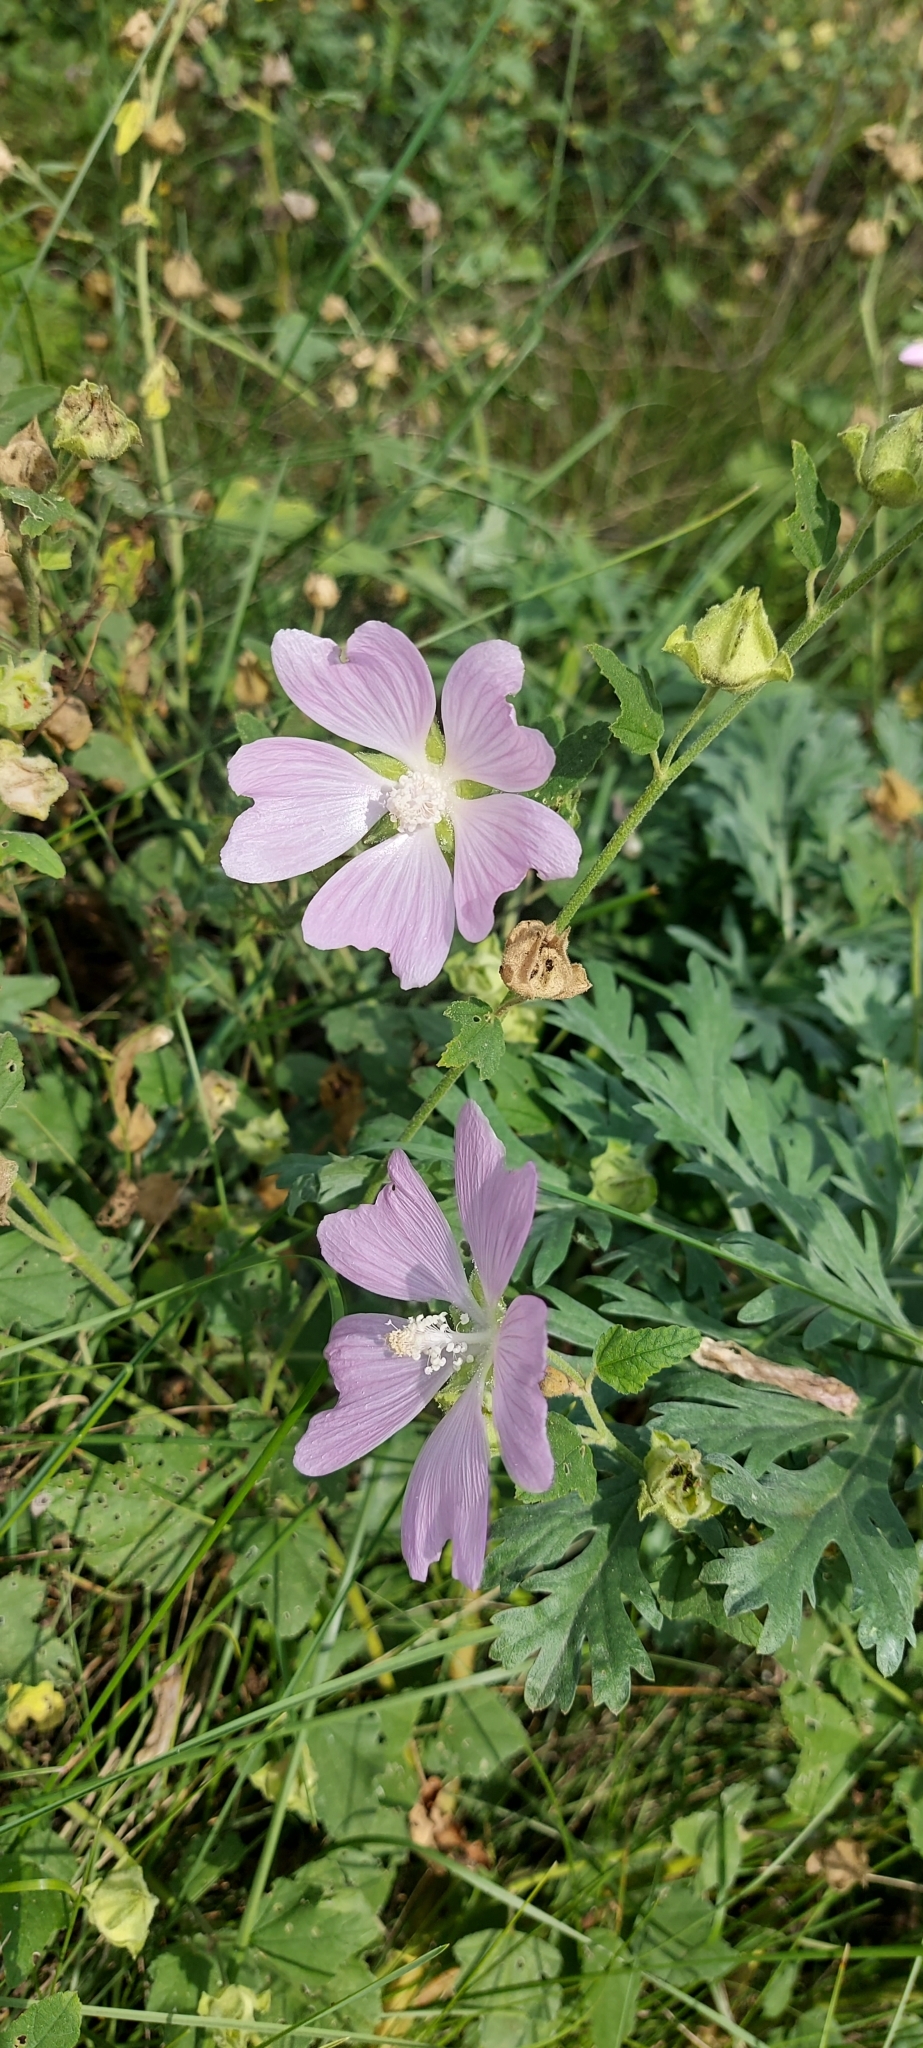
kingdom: Plantae
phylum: Tracheophyta
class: Magnoliopsida
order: Malvales
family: Malvaceae
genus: Malva
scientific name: Malva thuringiaca
